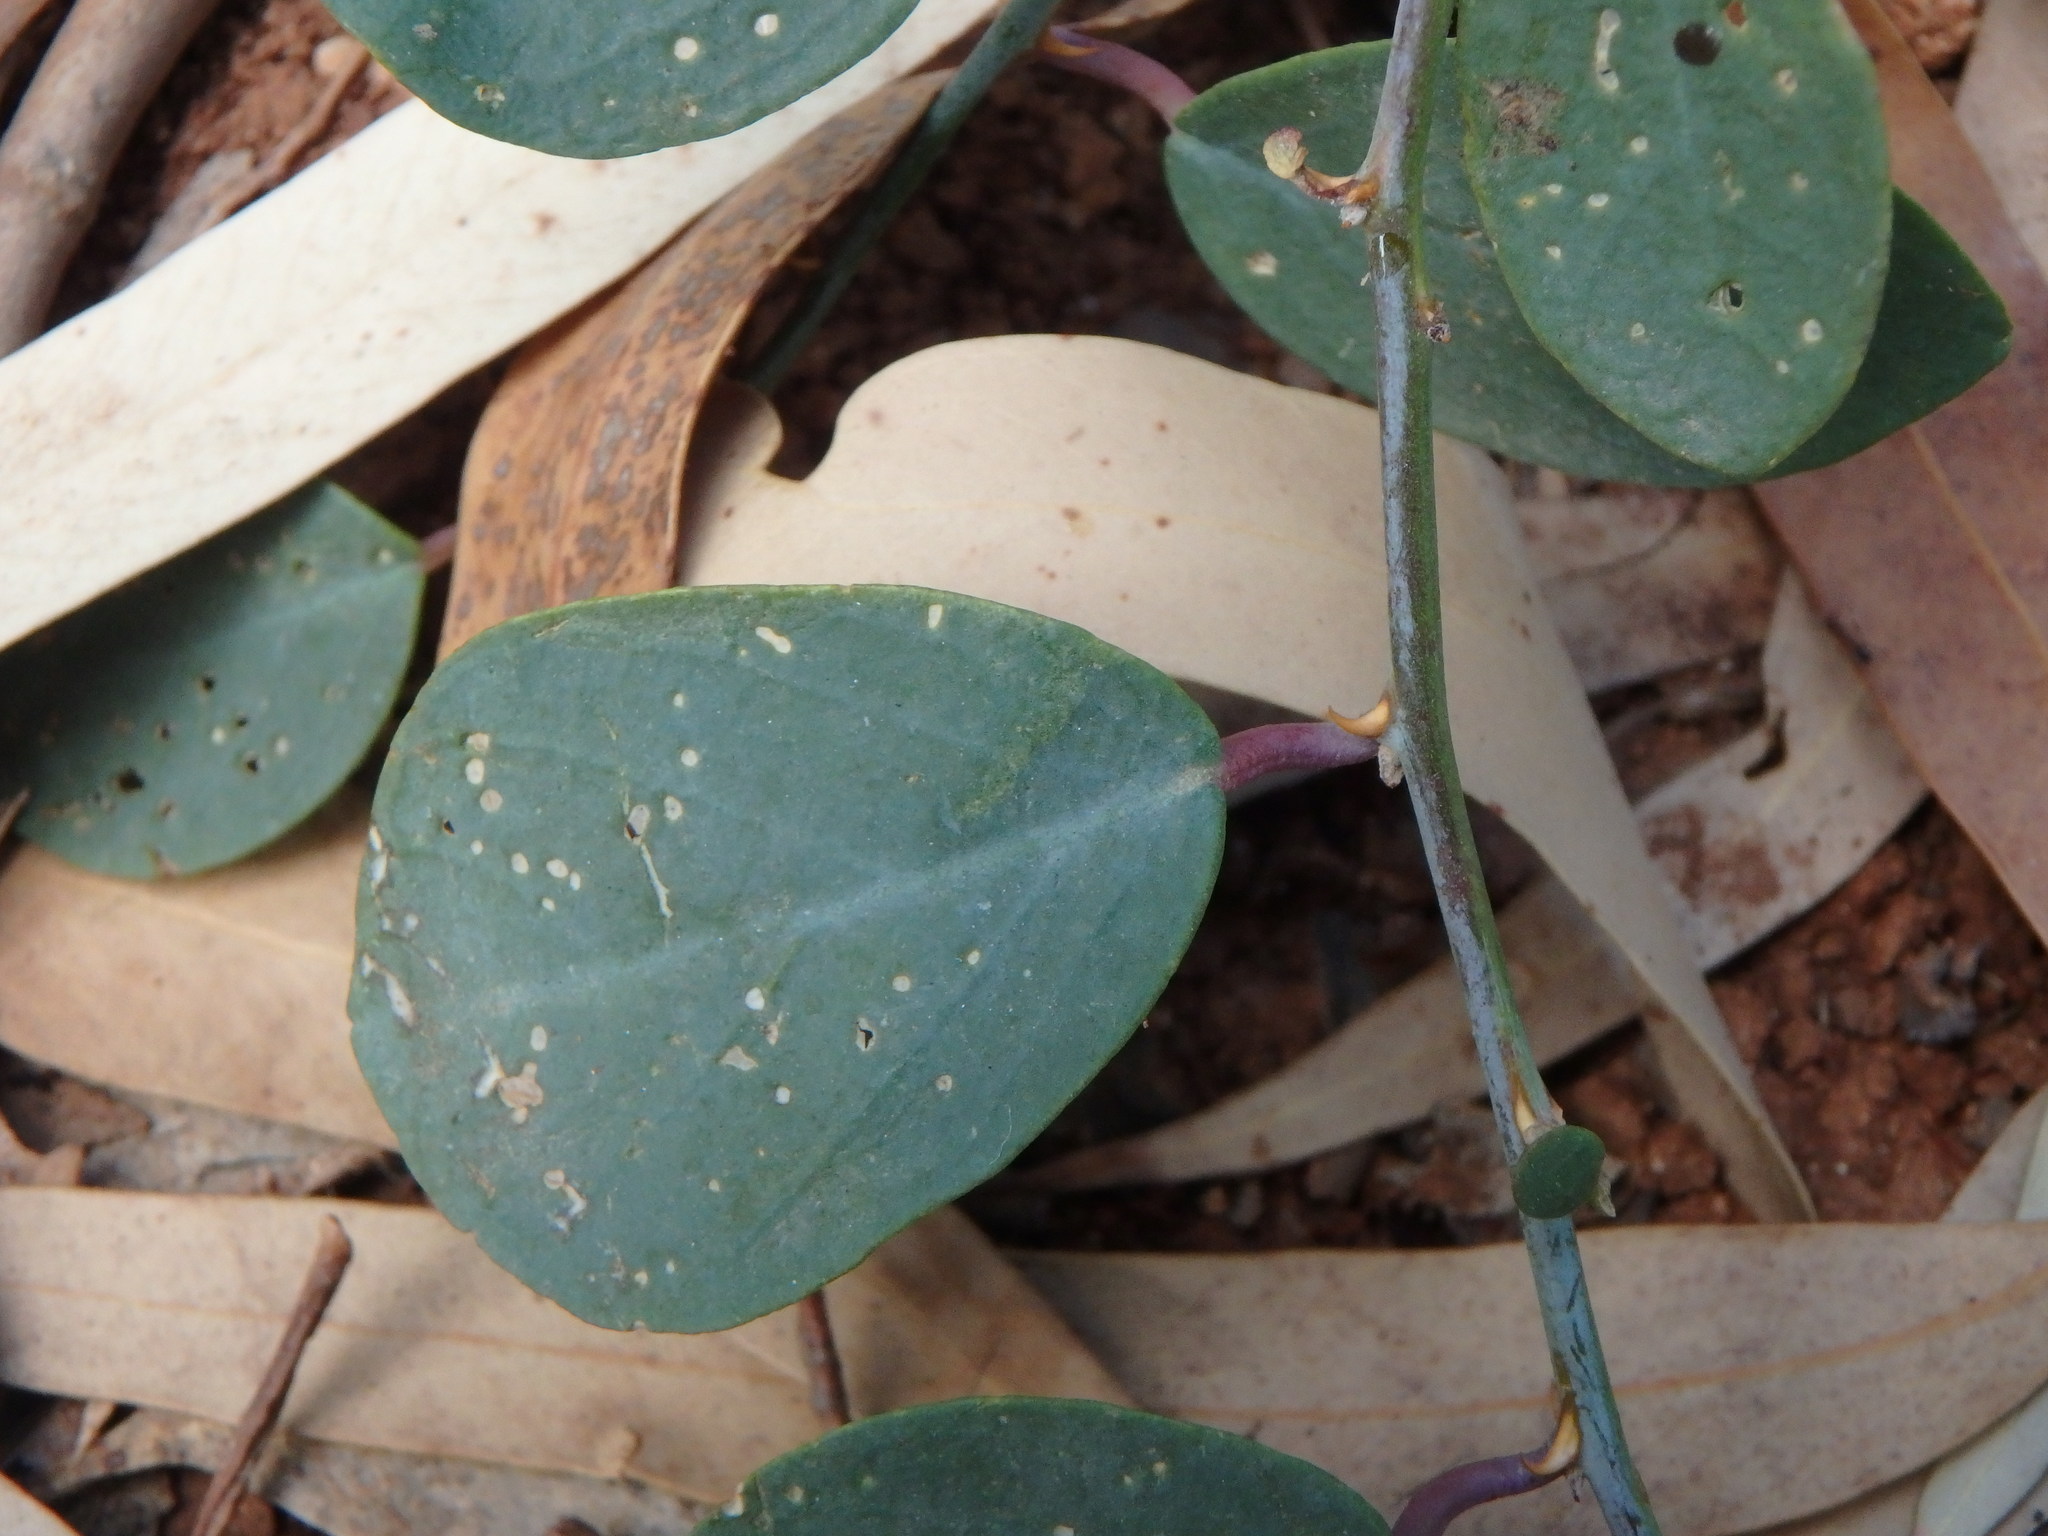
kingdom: Plantae
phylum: Tracheophyta
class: Magnoliopsida
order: Brassicales
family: Capparaceae
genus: Capparis
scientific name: Capparis spinosa
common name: Caper
